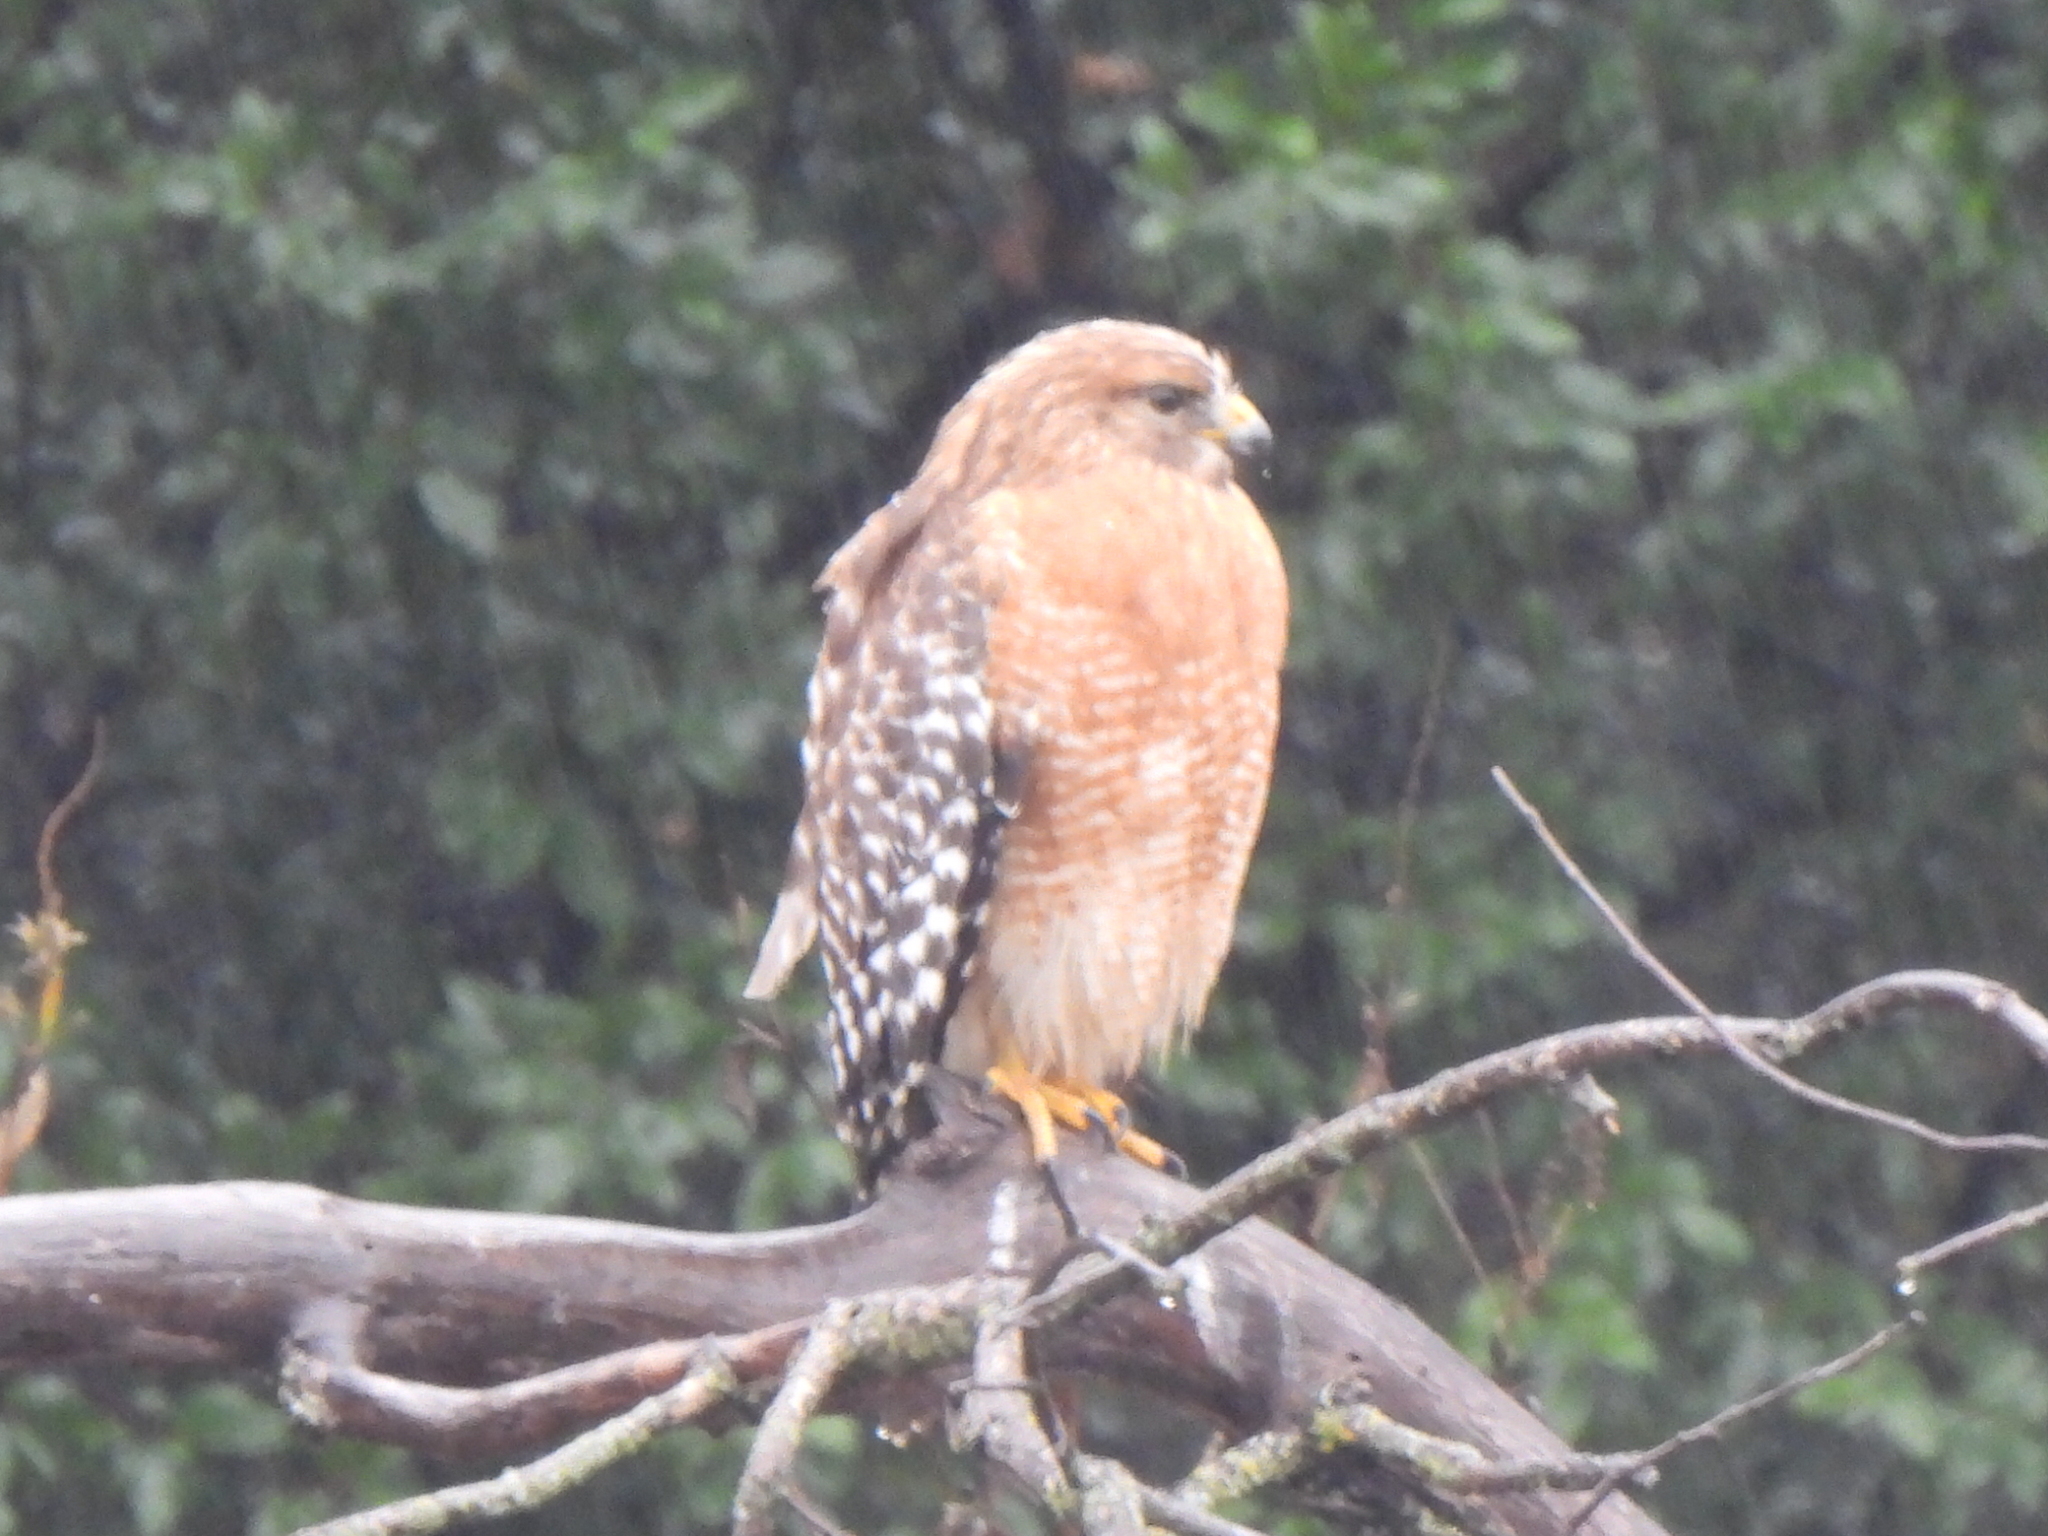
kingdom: Animalia
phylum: Chordata
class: Aves
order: Accipitriformes
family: Accipitridae
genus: Buteo
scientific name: Buteo lineatus
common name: Red-shouldered hawk
